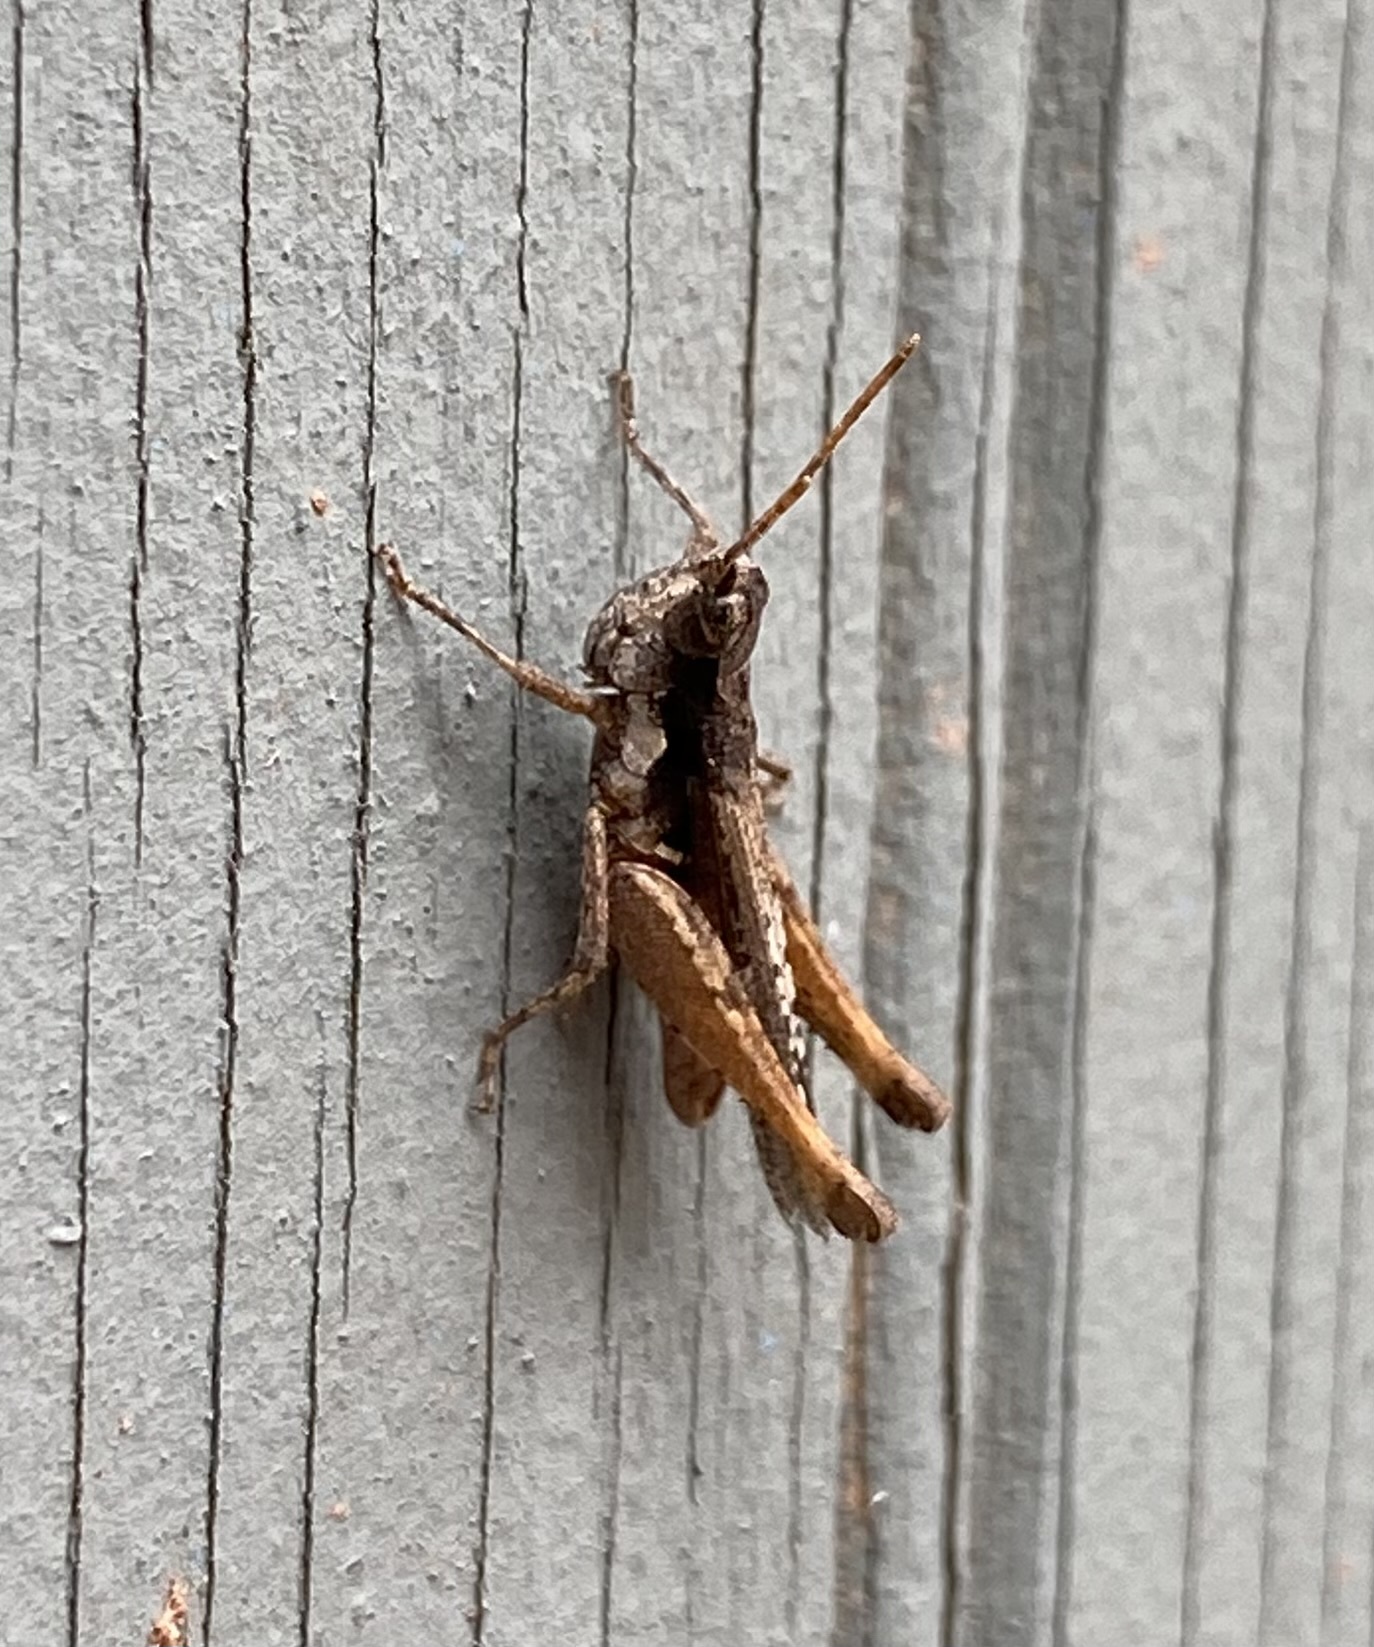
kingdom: Animalia
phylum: Arthropoda
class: Insecta
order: Orthoptera
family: Acrididae
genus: Horesidotes
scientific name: Horesidotes cinereus
